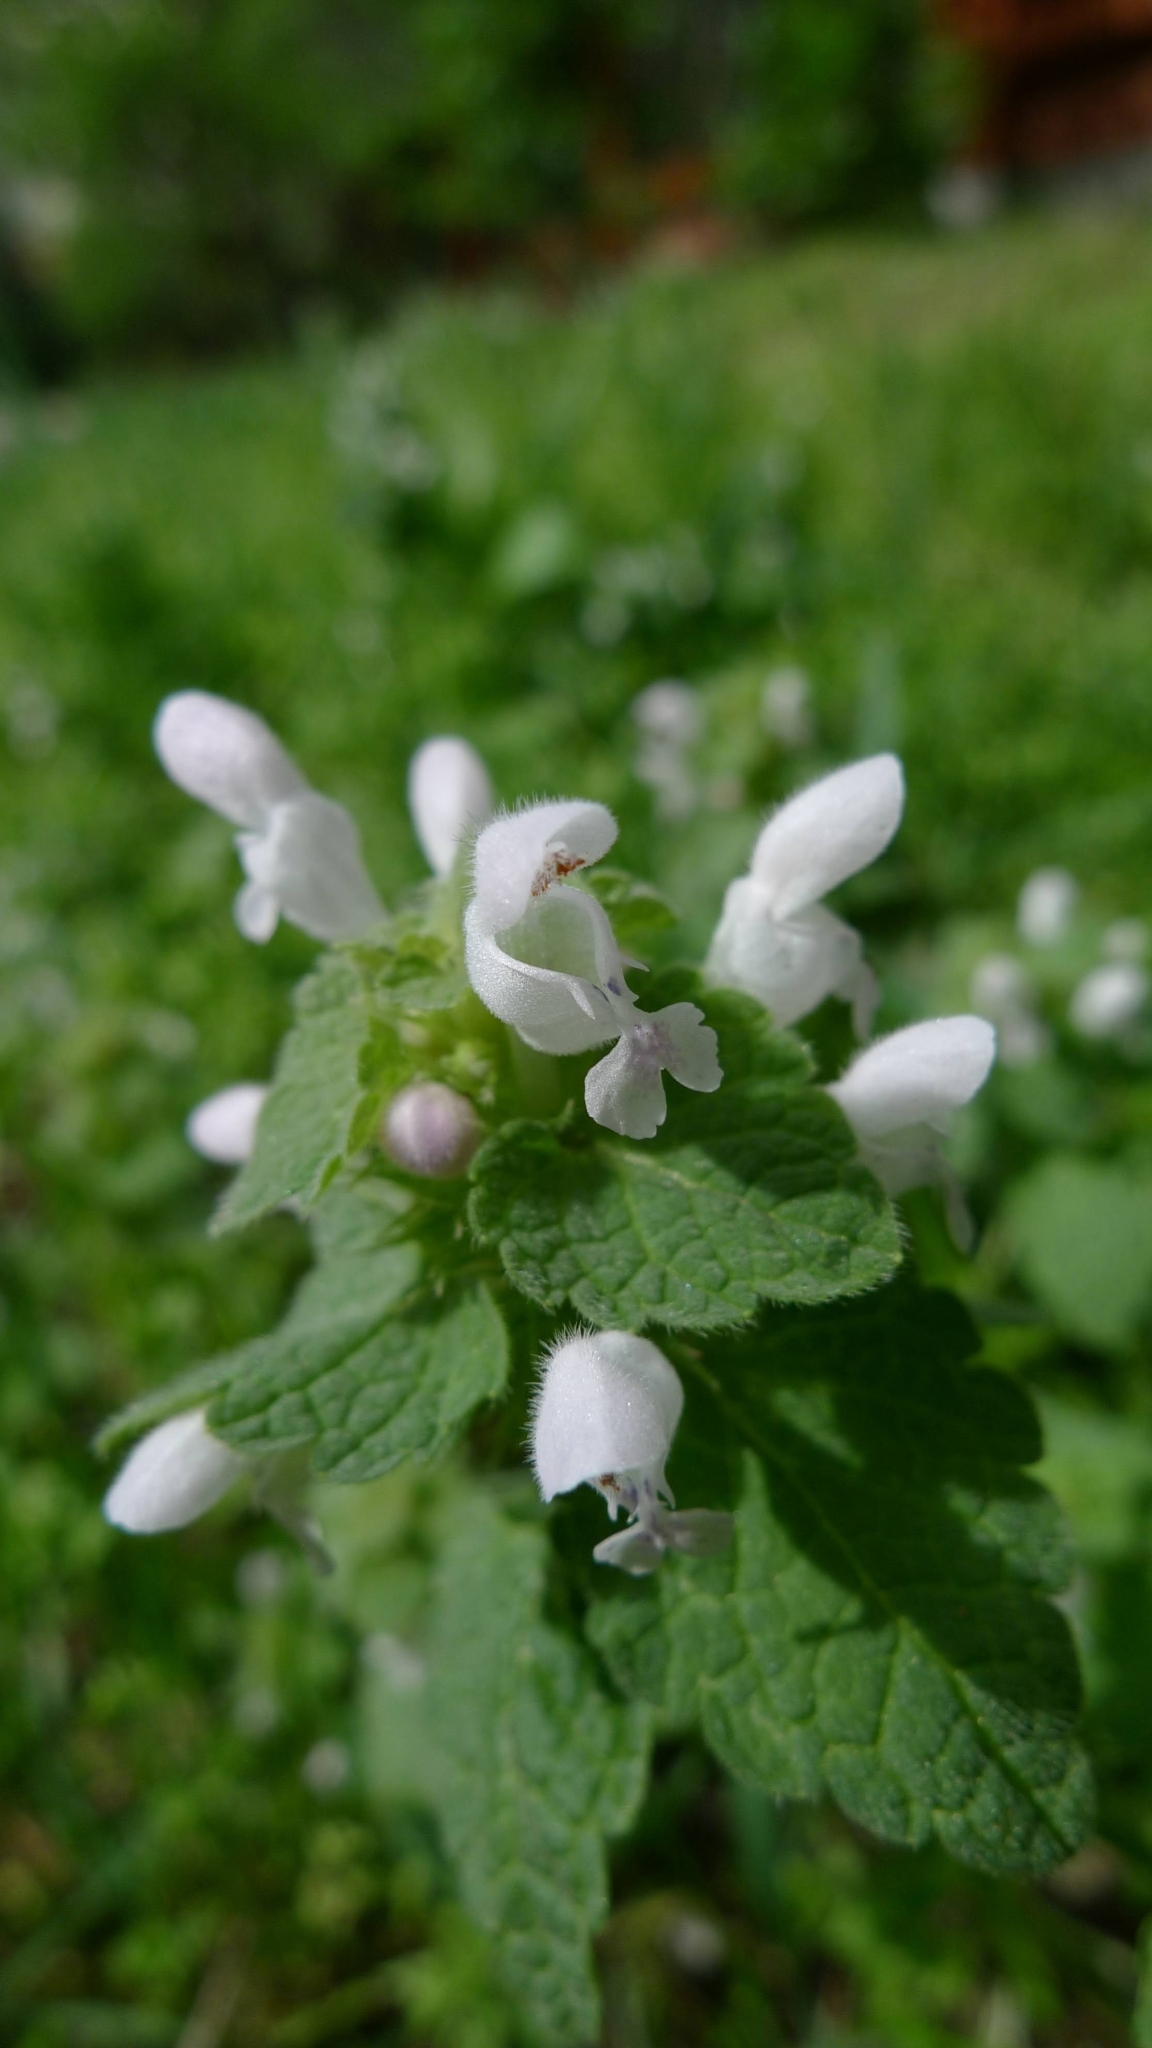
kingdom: Plantae
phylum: Tracheophyta
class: Magnoliopsida
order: Lamiales
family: Lamiaceae
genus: Lamium
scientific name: Lamium purpureum
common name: Red dead-nettle
